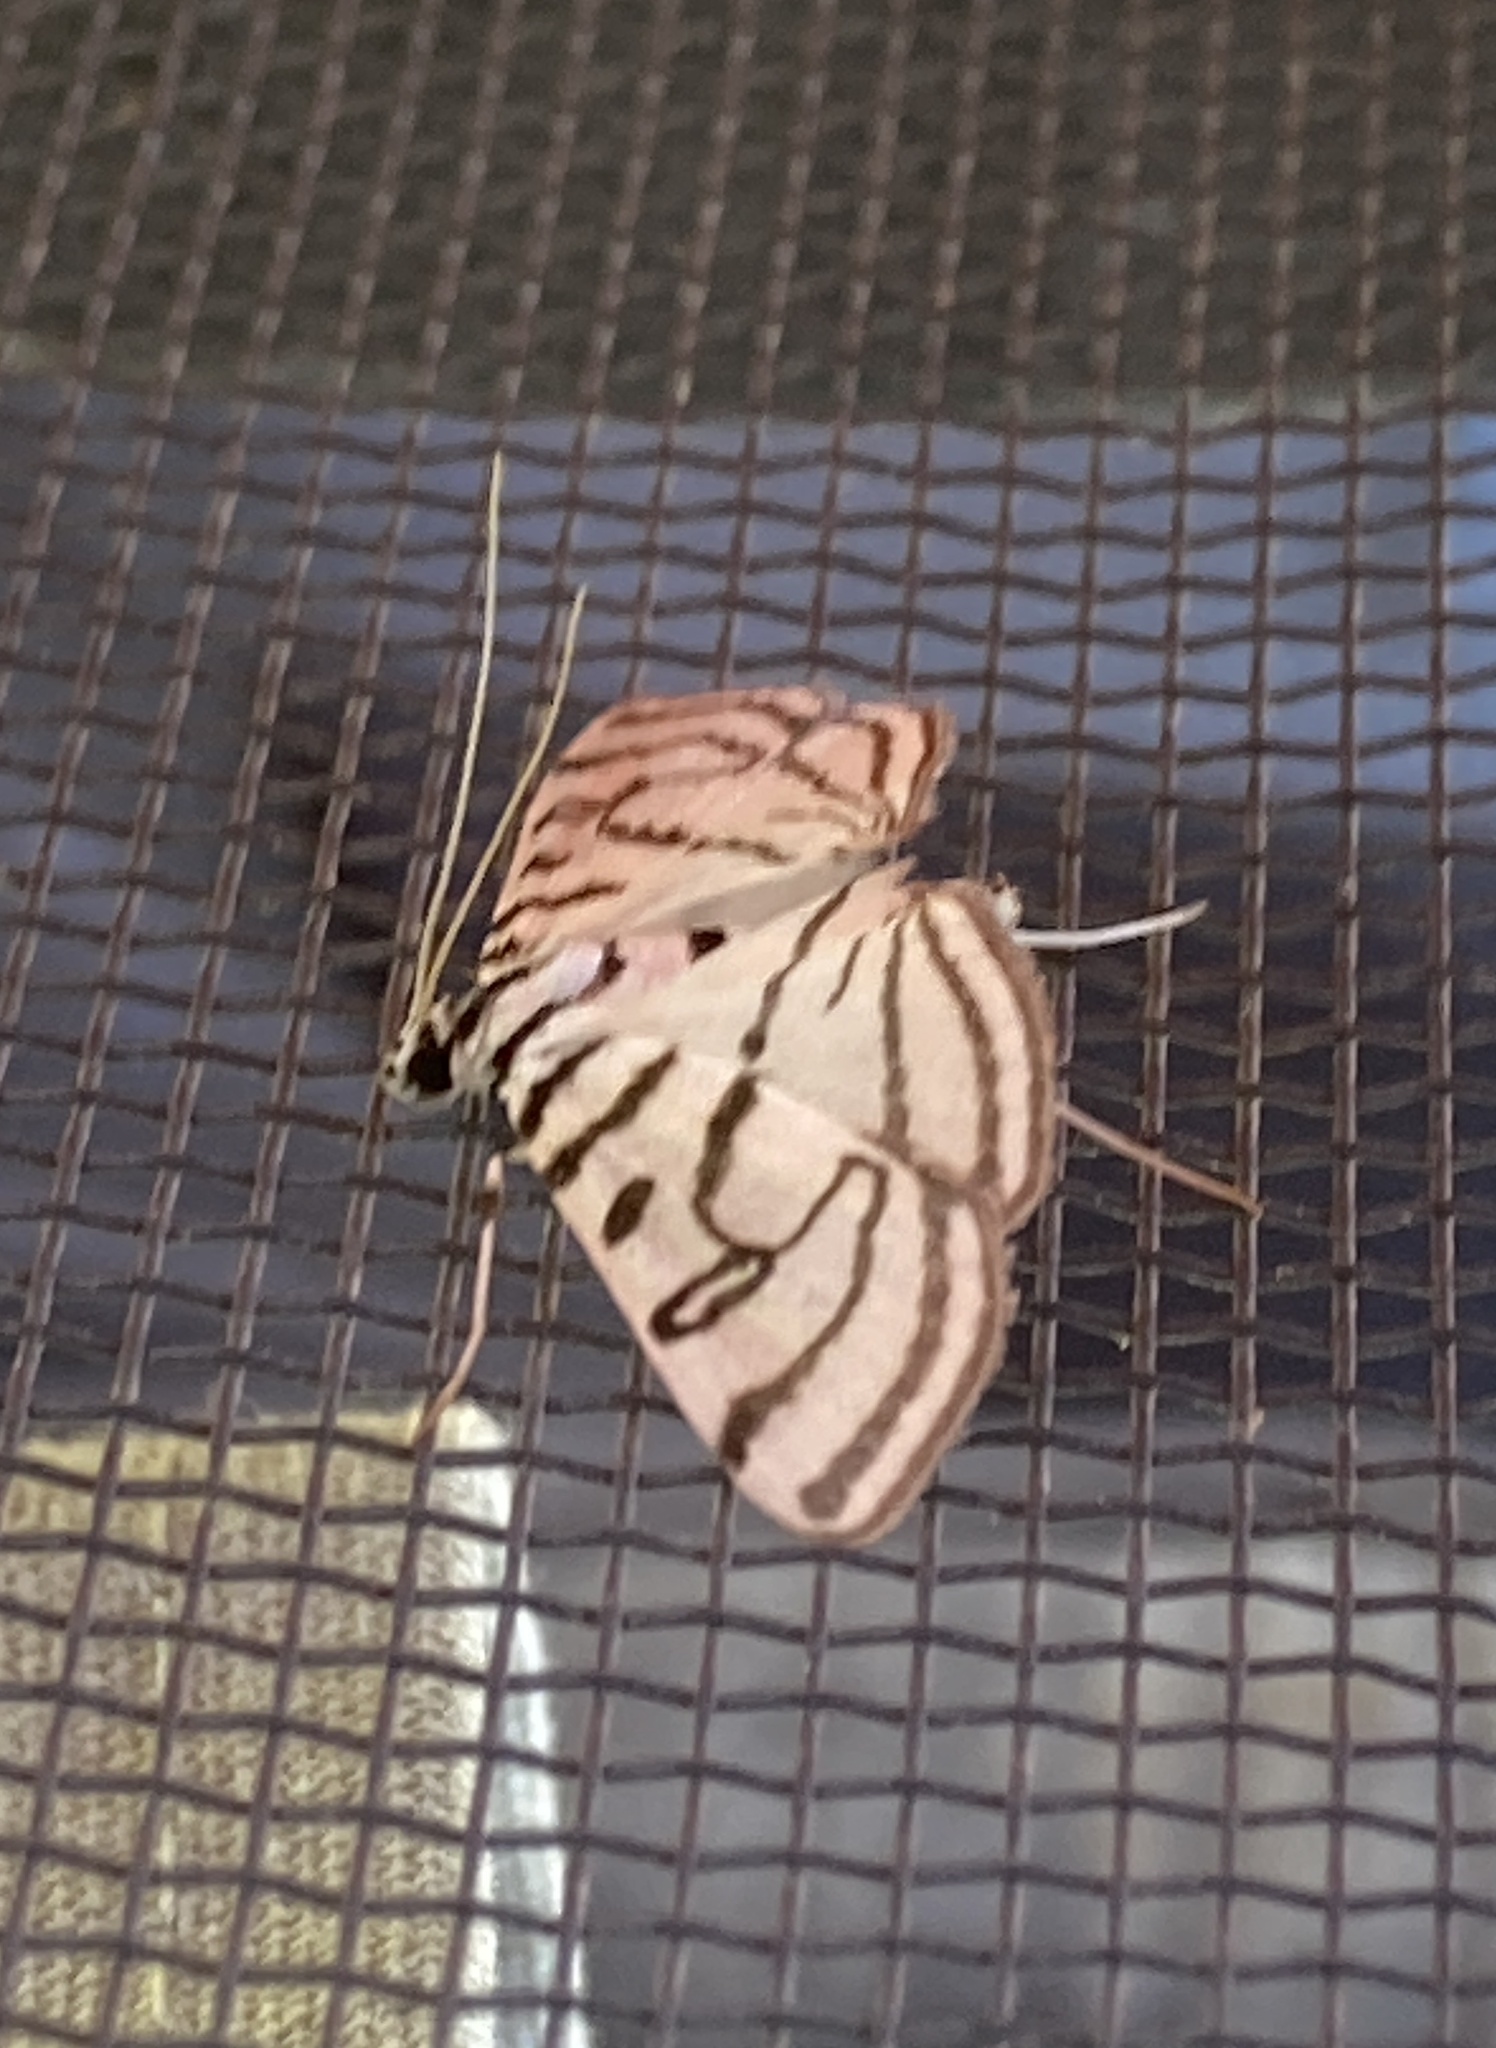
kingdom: Animalia
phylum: Arthropoda
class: Insecta
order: Lepidoptera
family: Crambidae
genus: Conchylodes
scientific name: Conchylodes ovulalis
